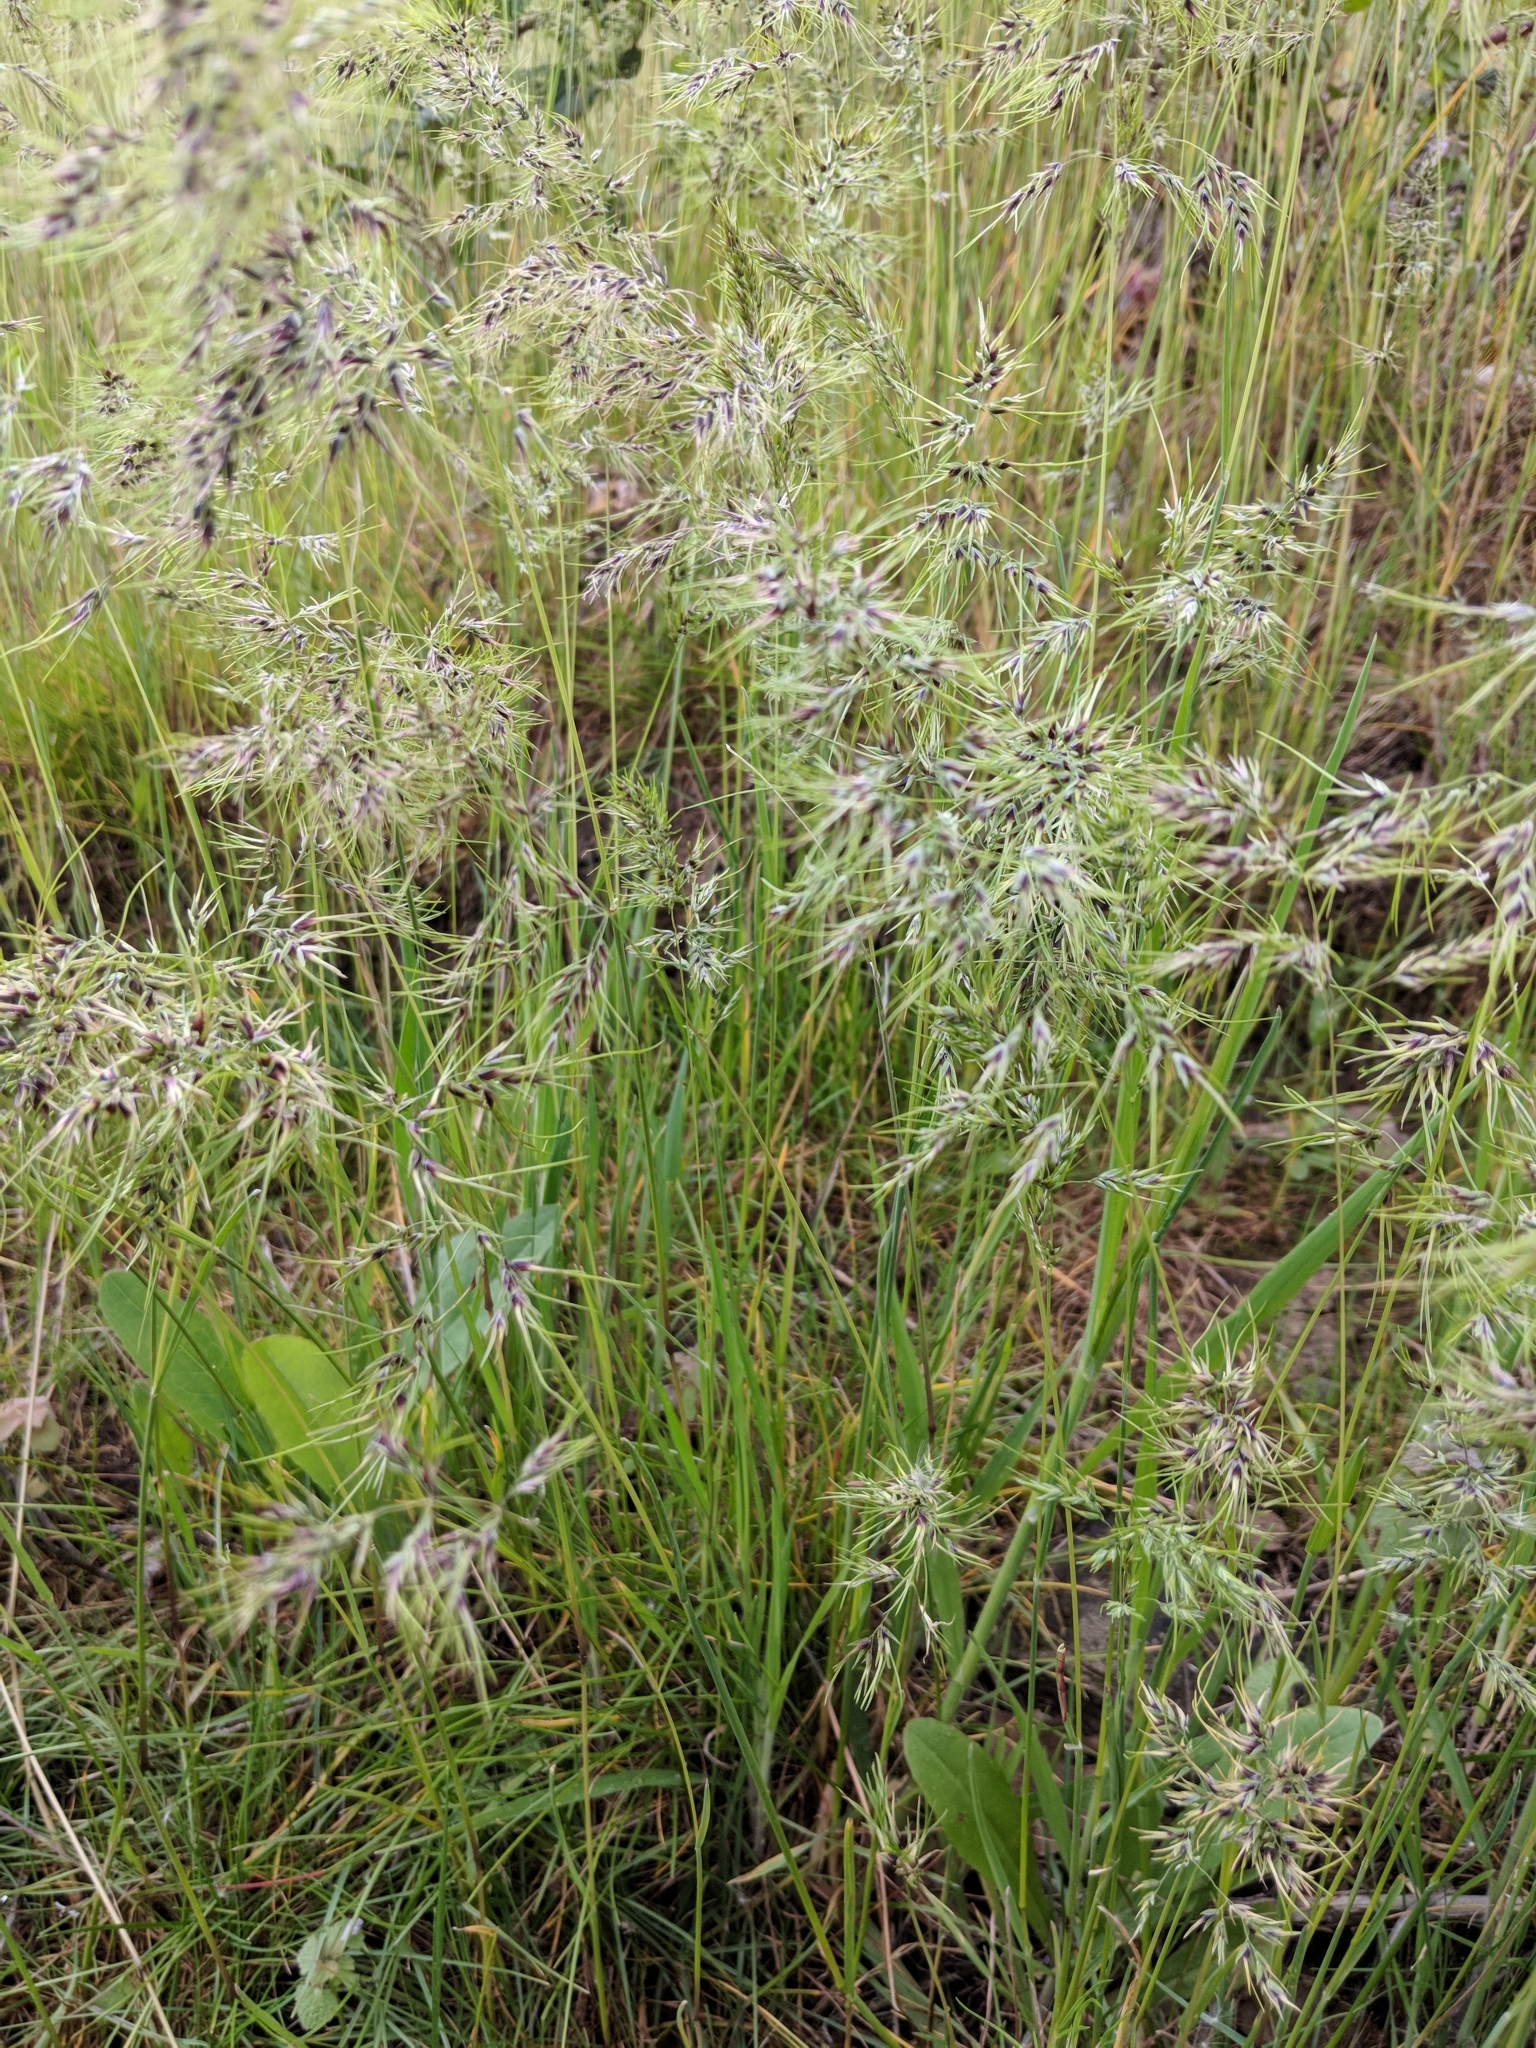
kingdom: Plantae
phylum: Tracheophyta
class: Liliopsida
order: Poales
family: Poaceae
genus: Poa
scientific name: Poa bulbosa
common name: Bulbous bluegrass
